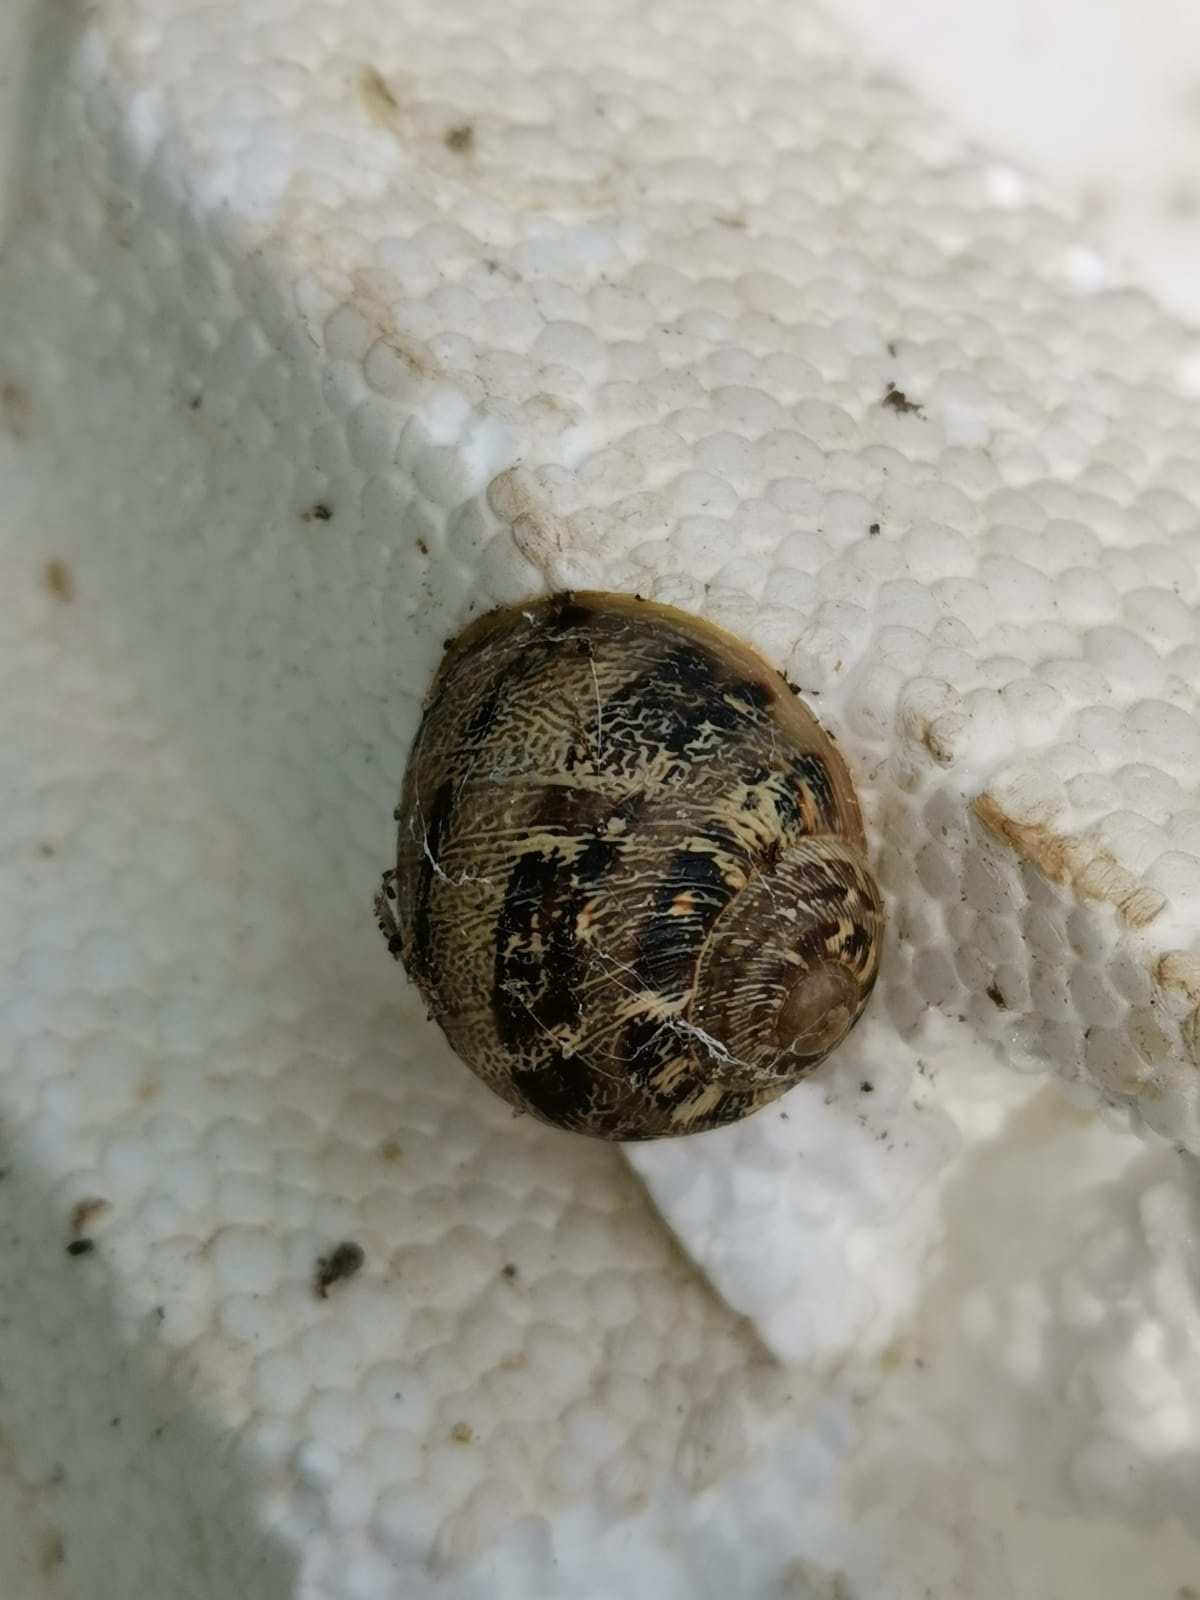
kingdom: Animalia
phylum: Mollusca
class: Gastropoda
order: Stylommatophora
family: Helicidae
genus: Cornu
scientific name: Cornu aspersum
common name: Brown garden snail
